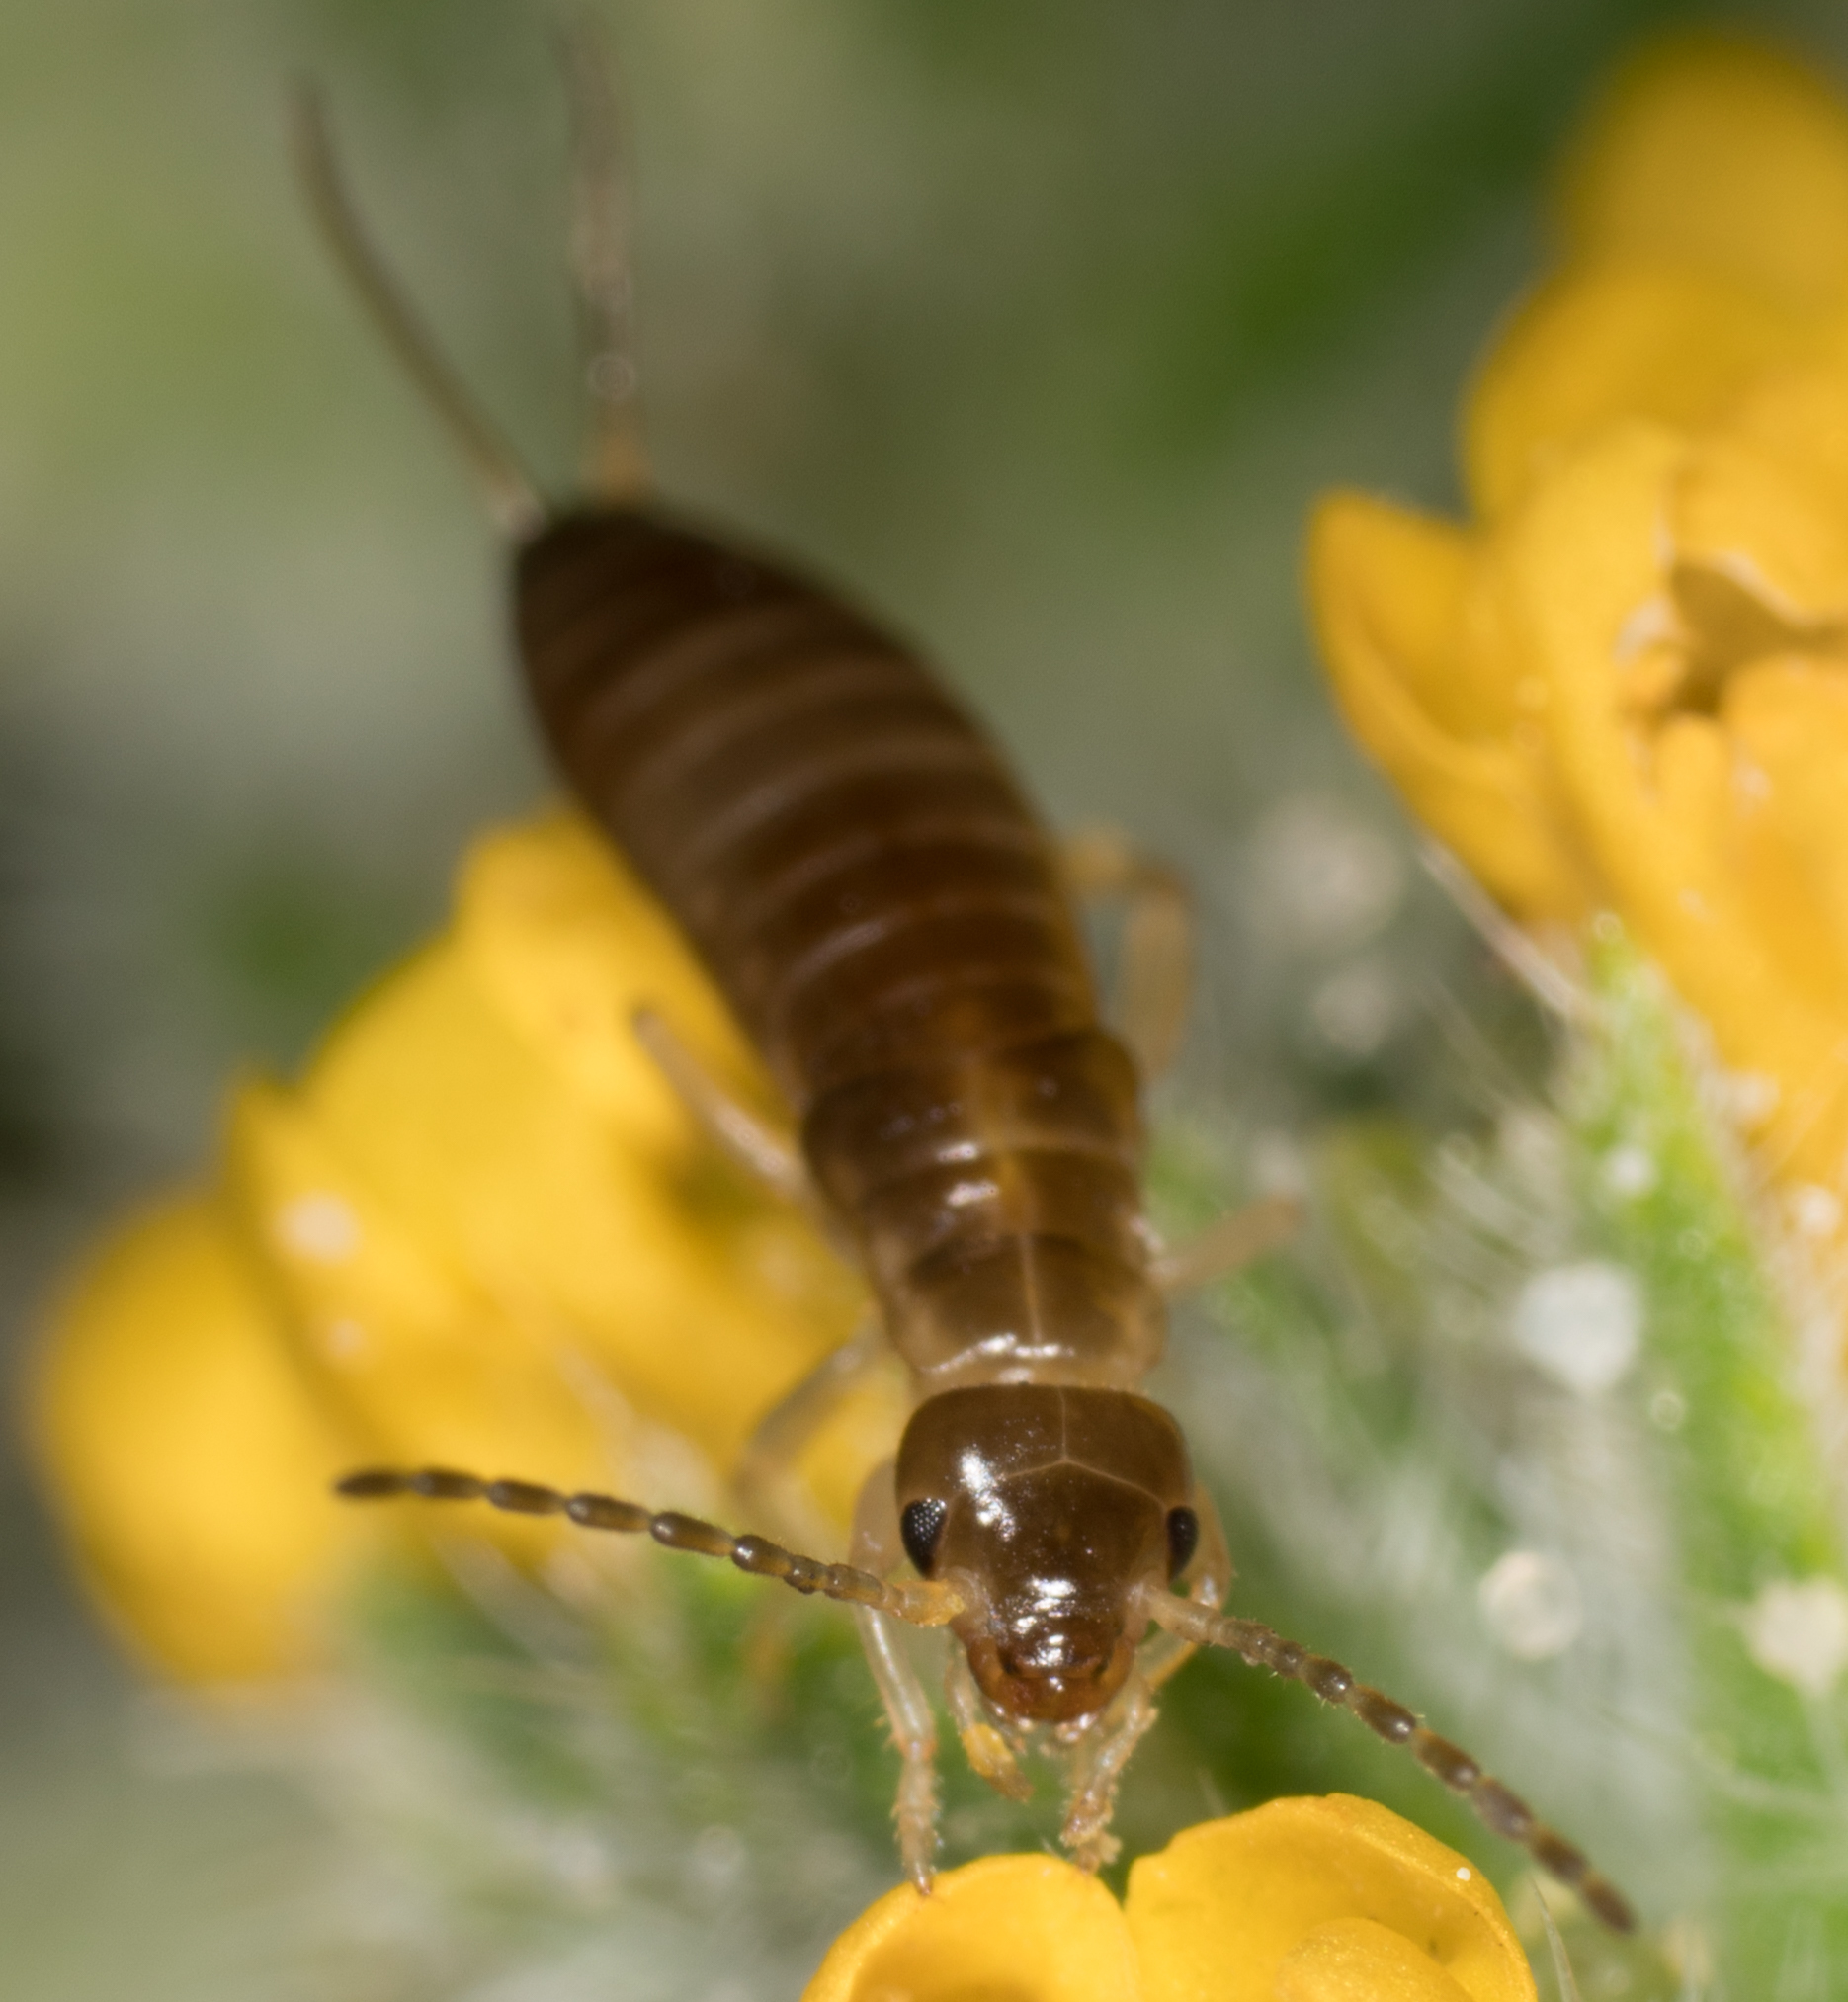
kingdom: Animalia
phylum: Arthropoda
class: Insecta
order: Dermaptera
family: Forficulidae
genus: Forficula
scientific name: Forficula dentata
